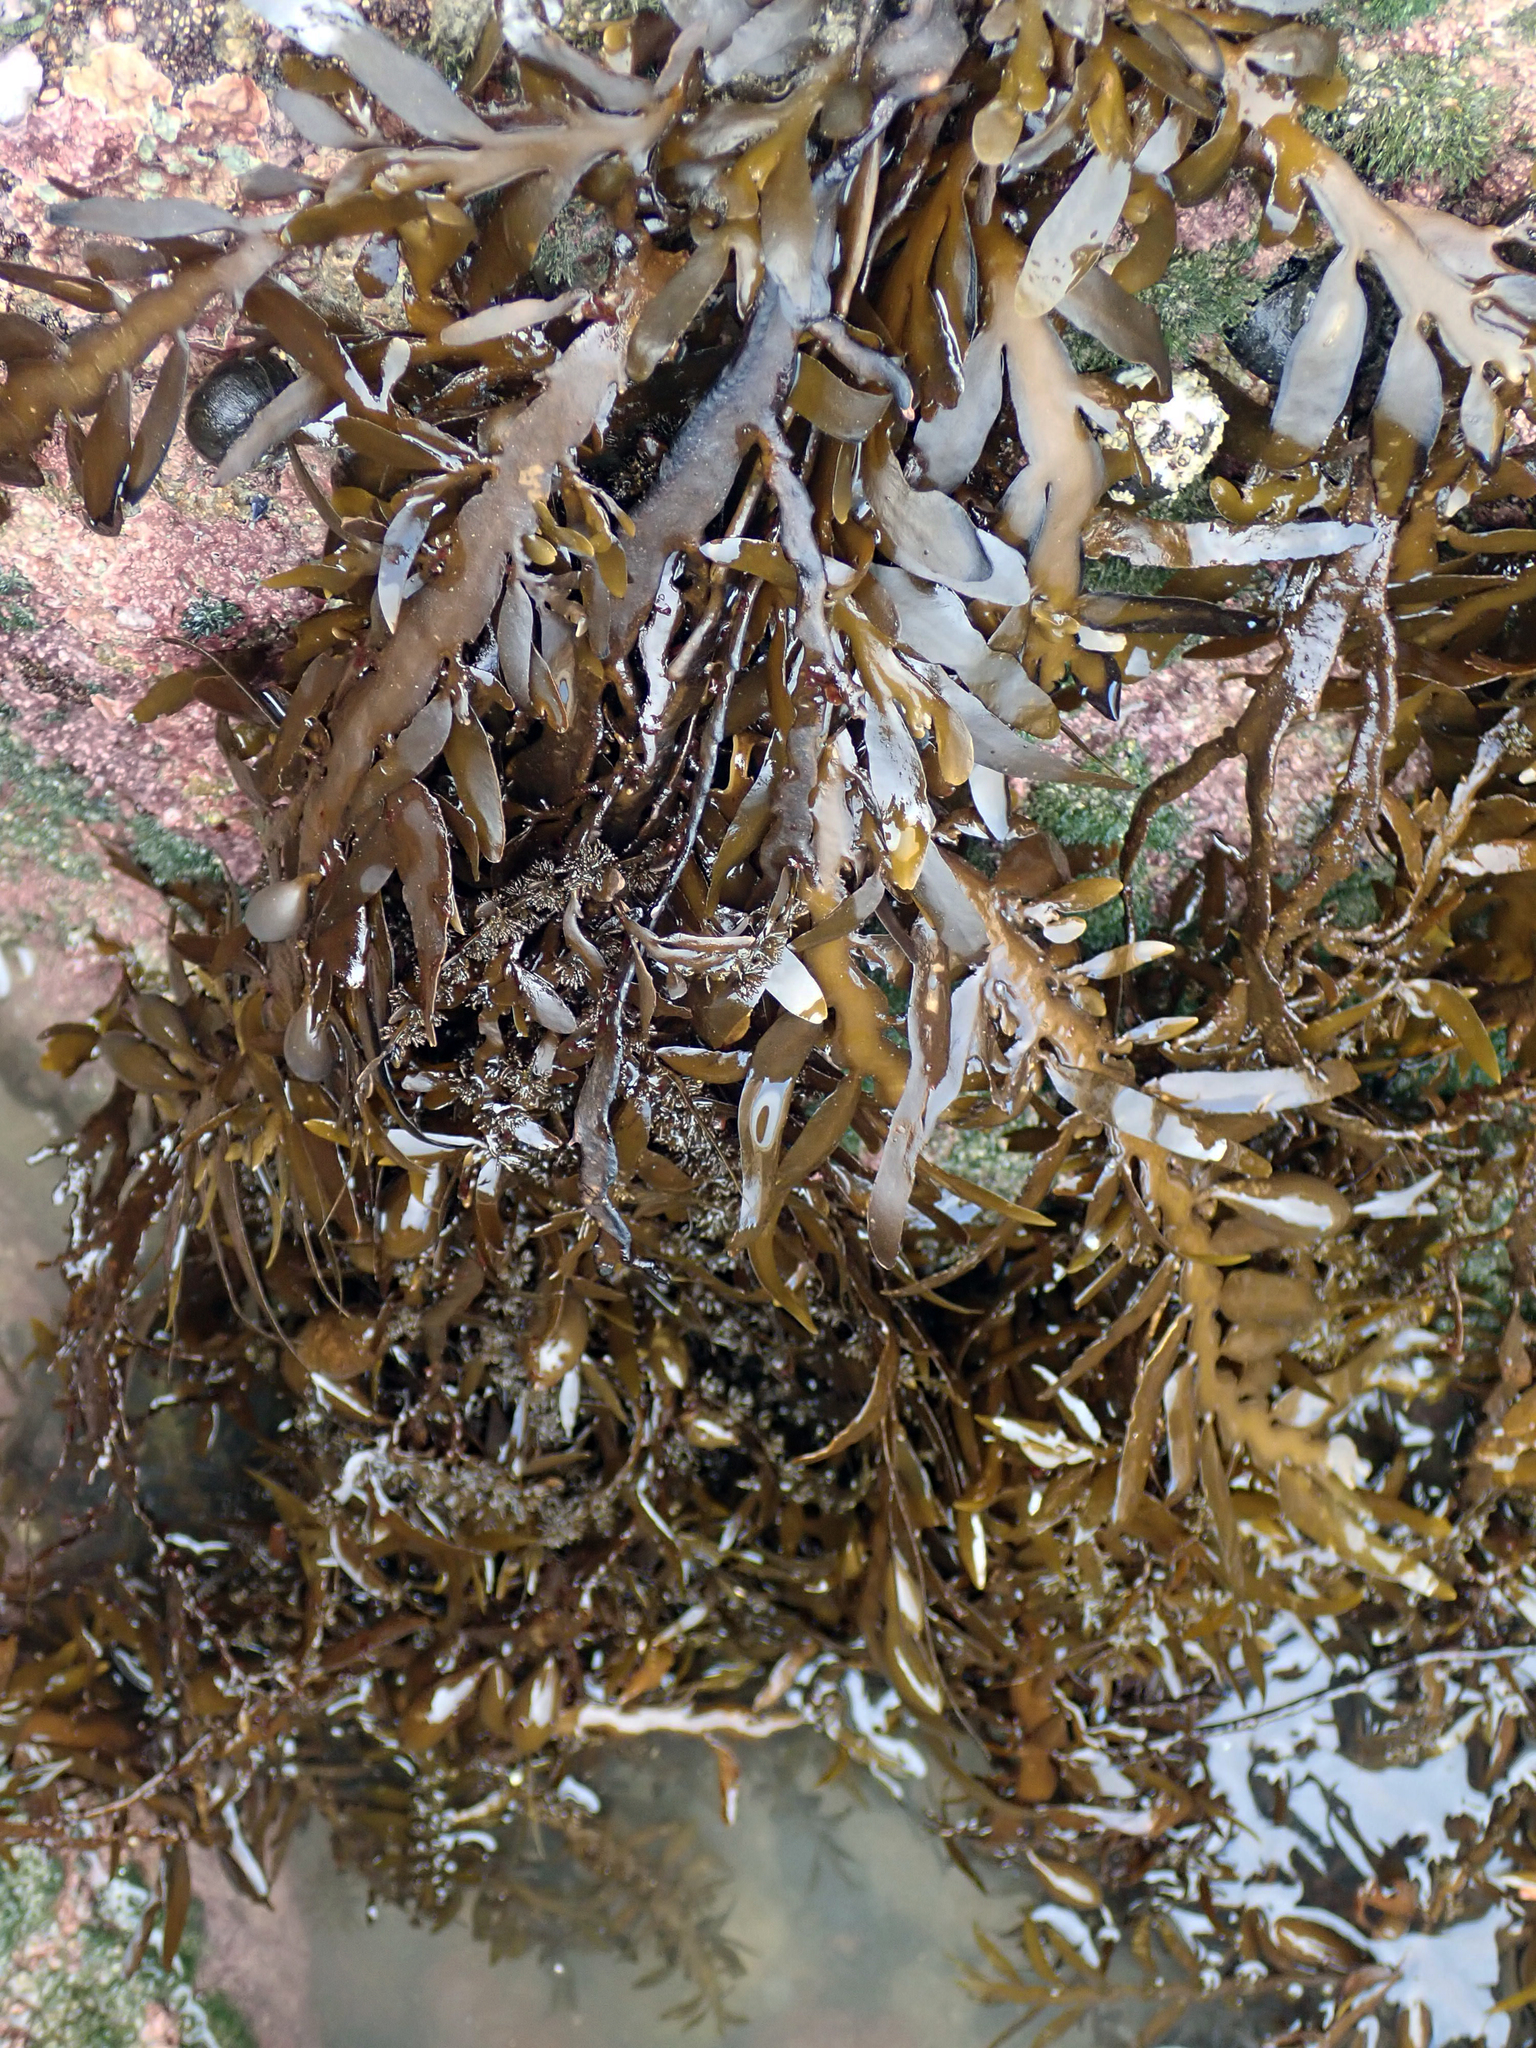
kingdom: Chromista
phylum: Ochrophyta
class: Phaeophyceae
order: Fucales
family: Sargassaceae
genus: Carpophyllum
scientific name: Carpophyllum maschalocarpum
